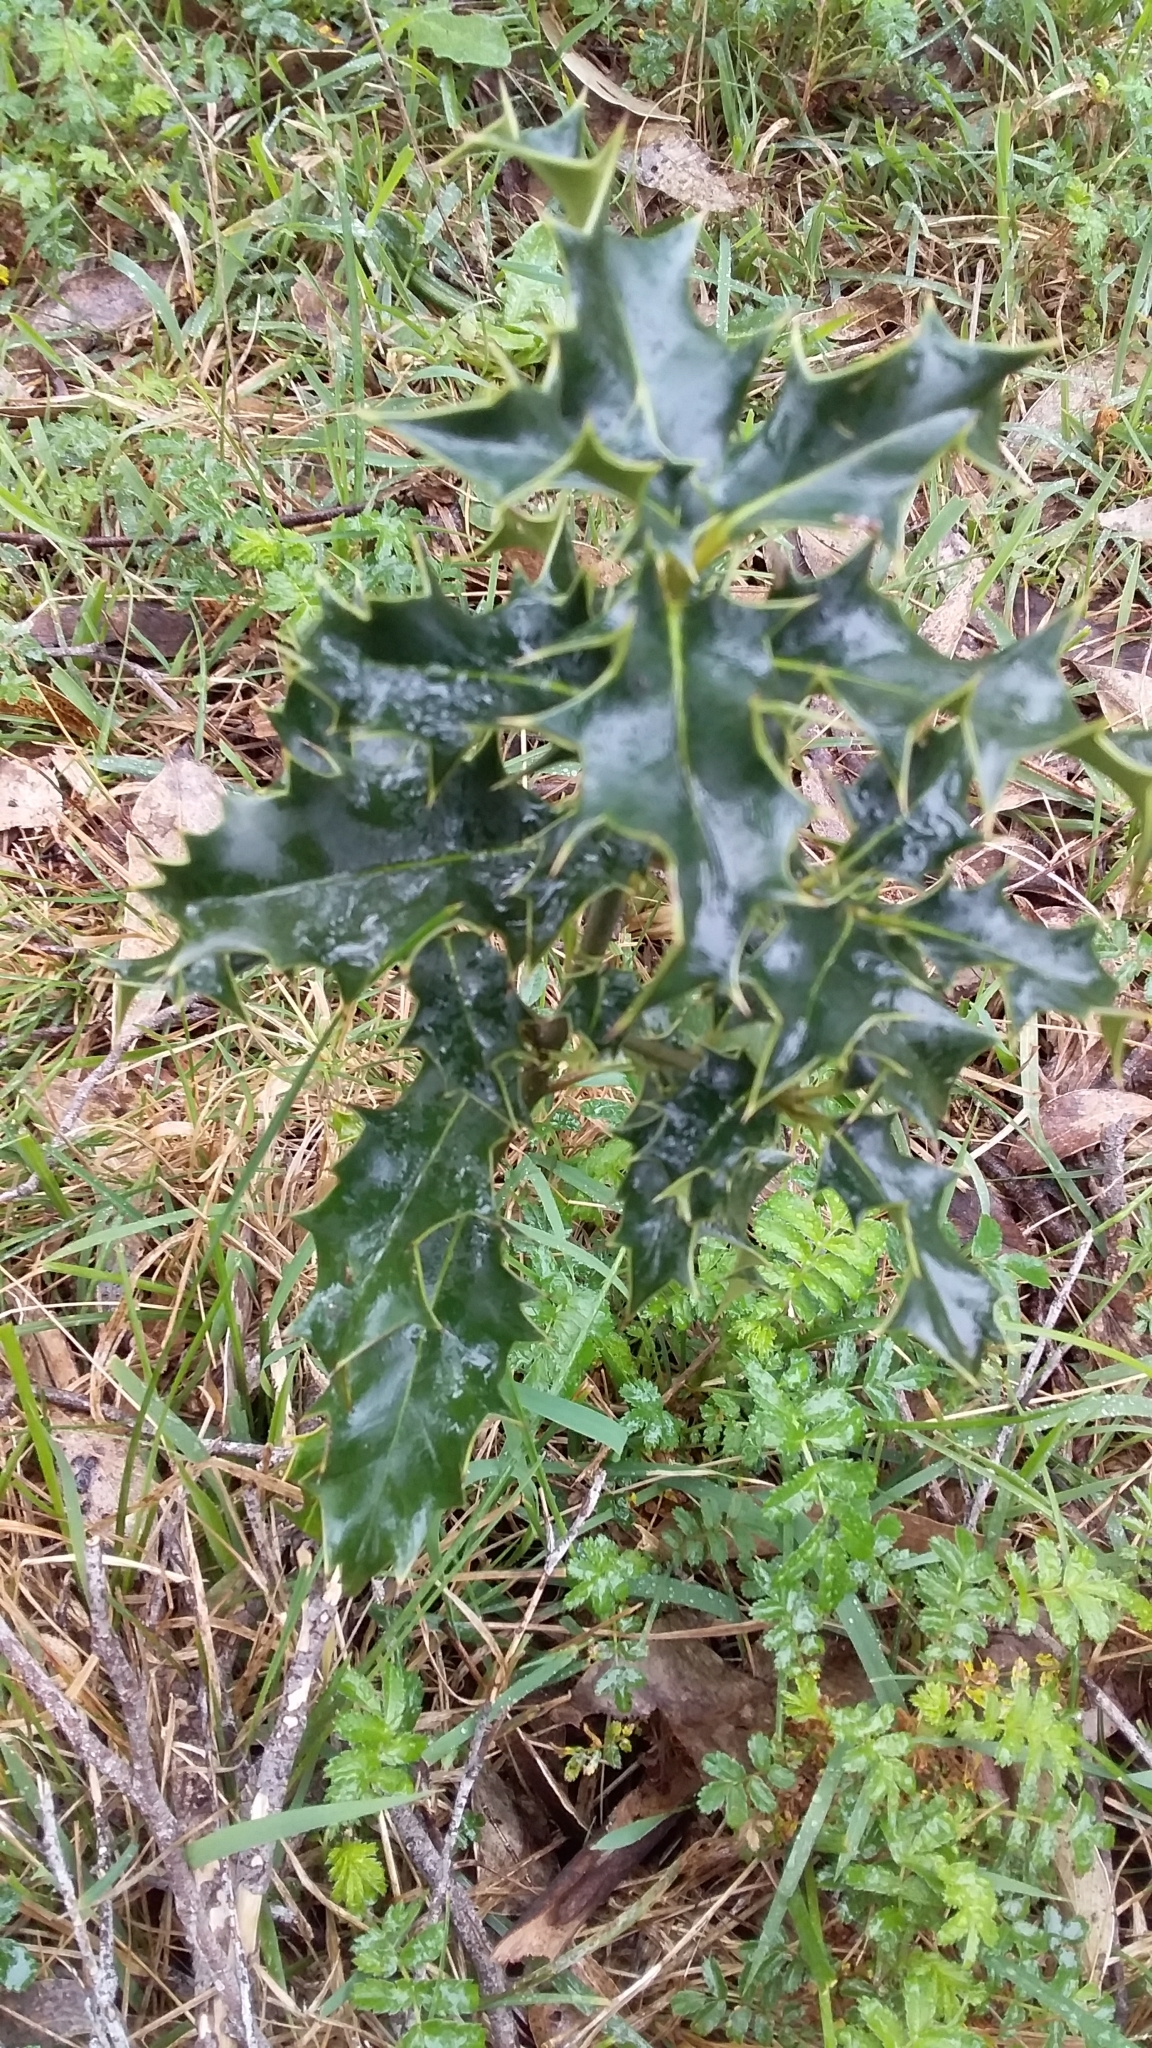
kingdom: Plantae
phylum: Tracheophyta
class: Magnoliopsida
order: Aquifoliales
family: Aquifoliaceae
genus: Ilex
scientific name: Ilex aquifolium
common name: English holly
